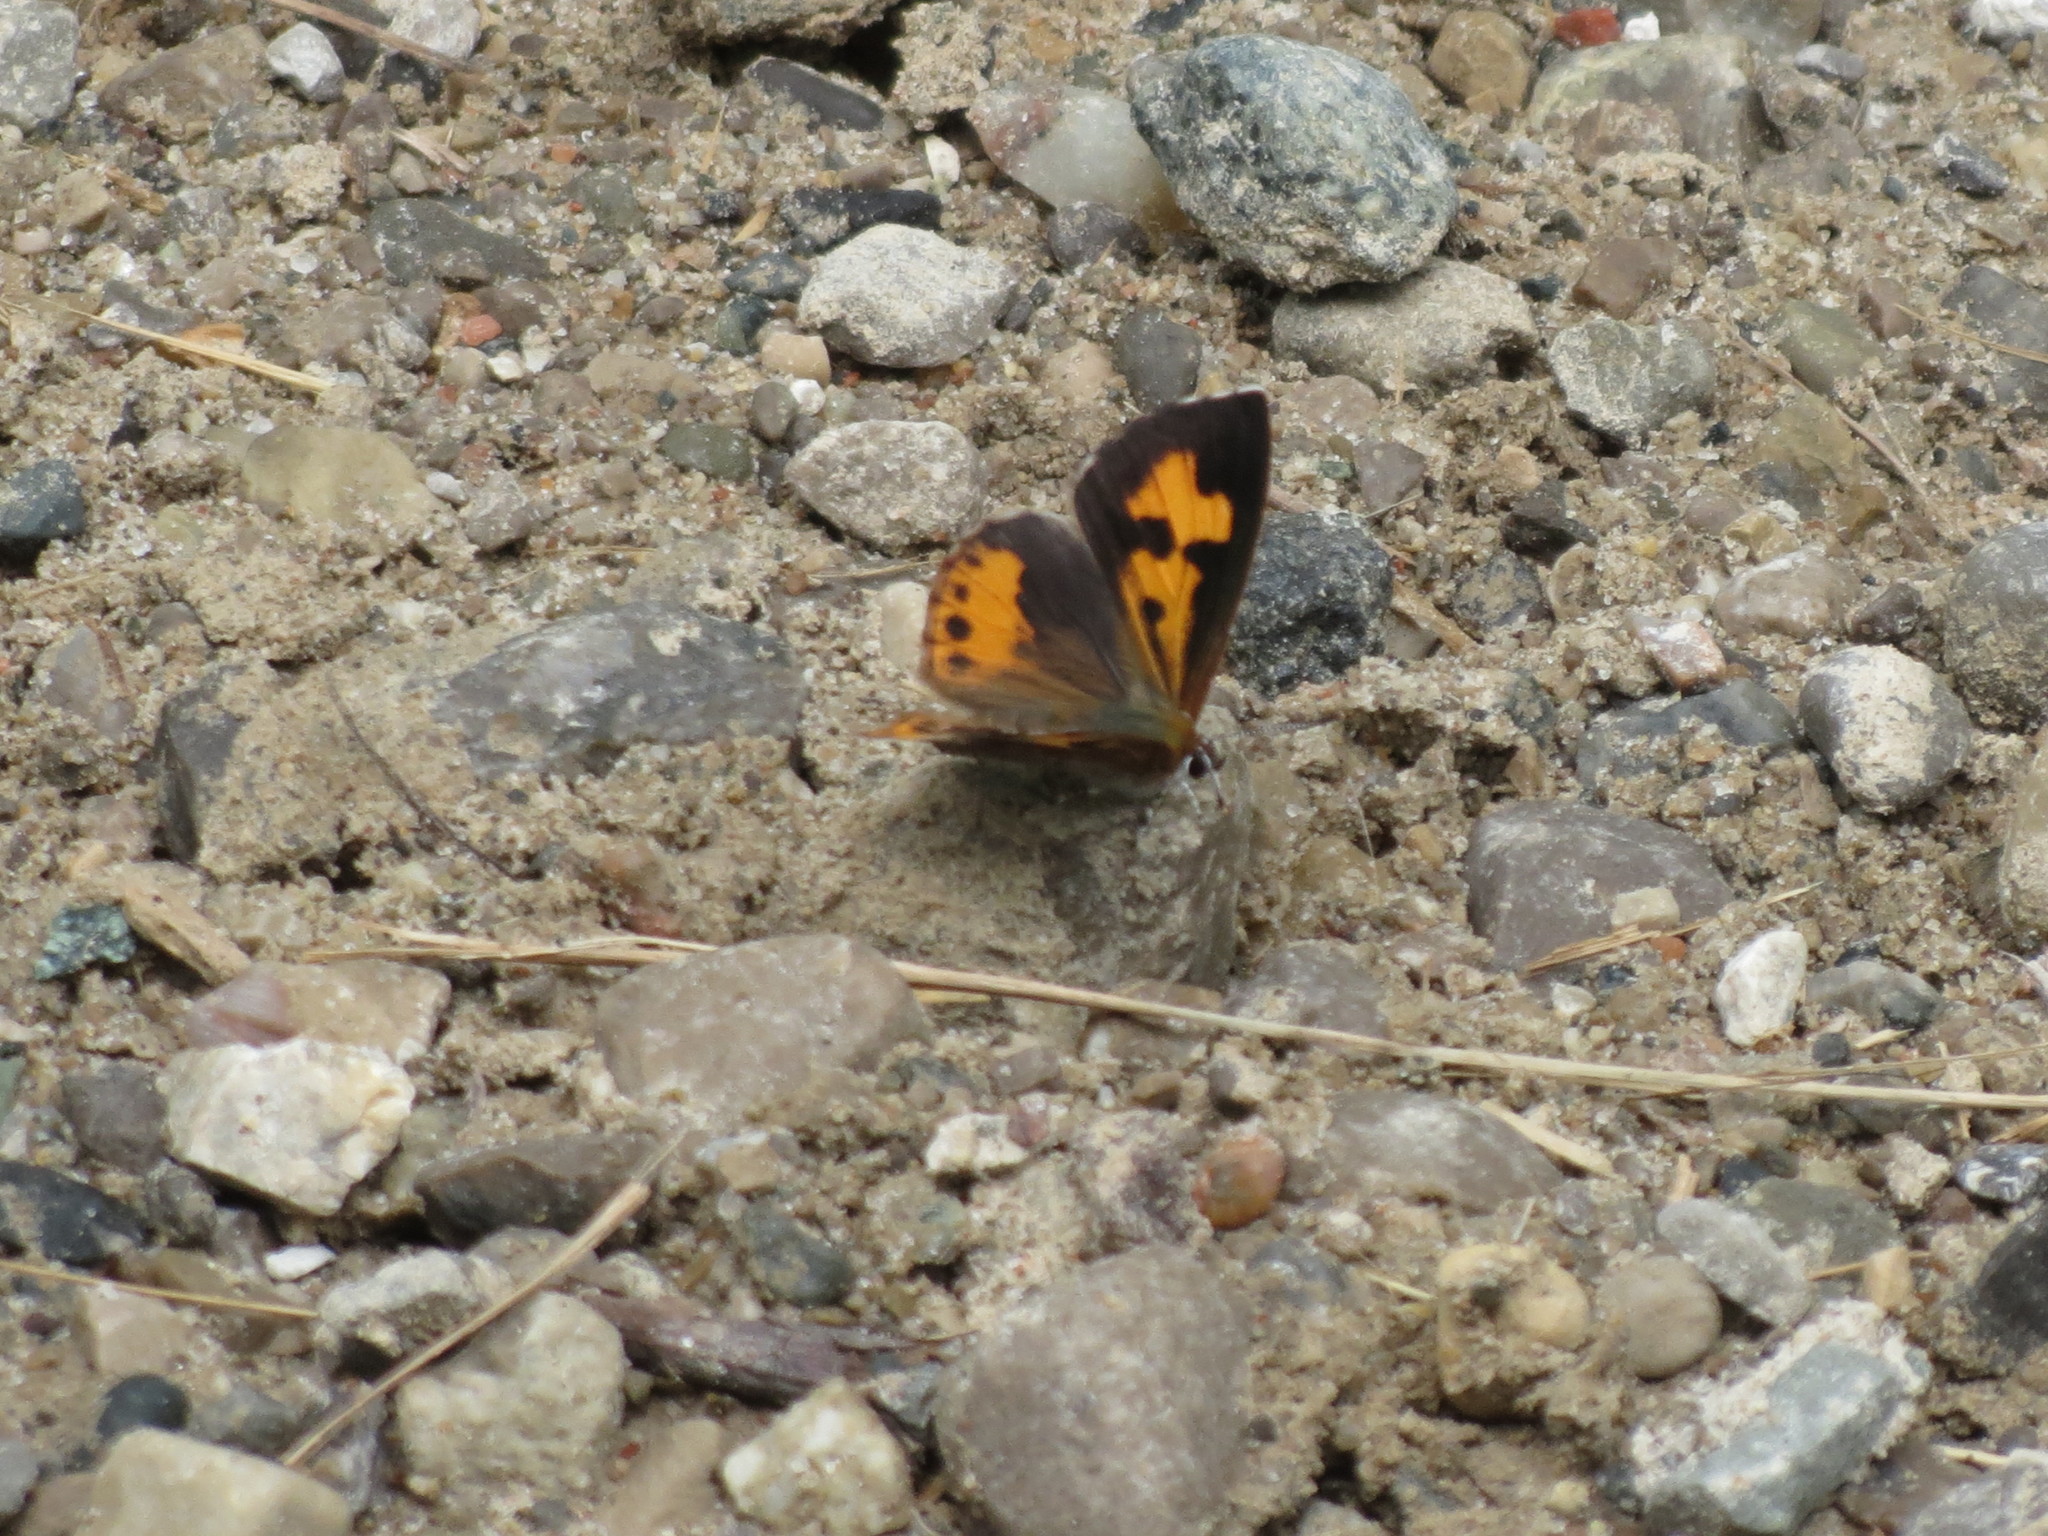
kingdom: Animalia
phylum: Arthropoda
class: Insecta
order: Lepidoptera
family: Lycaenidae
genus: Feniseca
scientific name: Feniseca tarquinius
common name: Harvester
